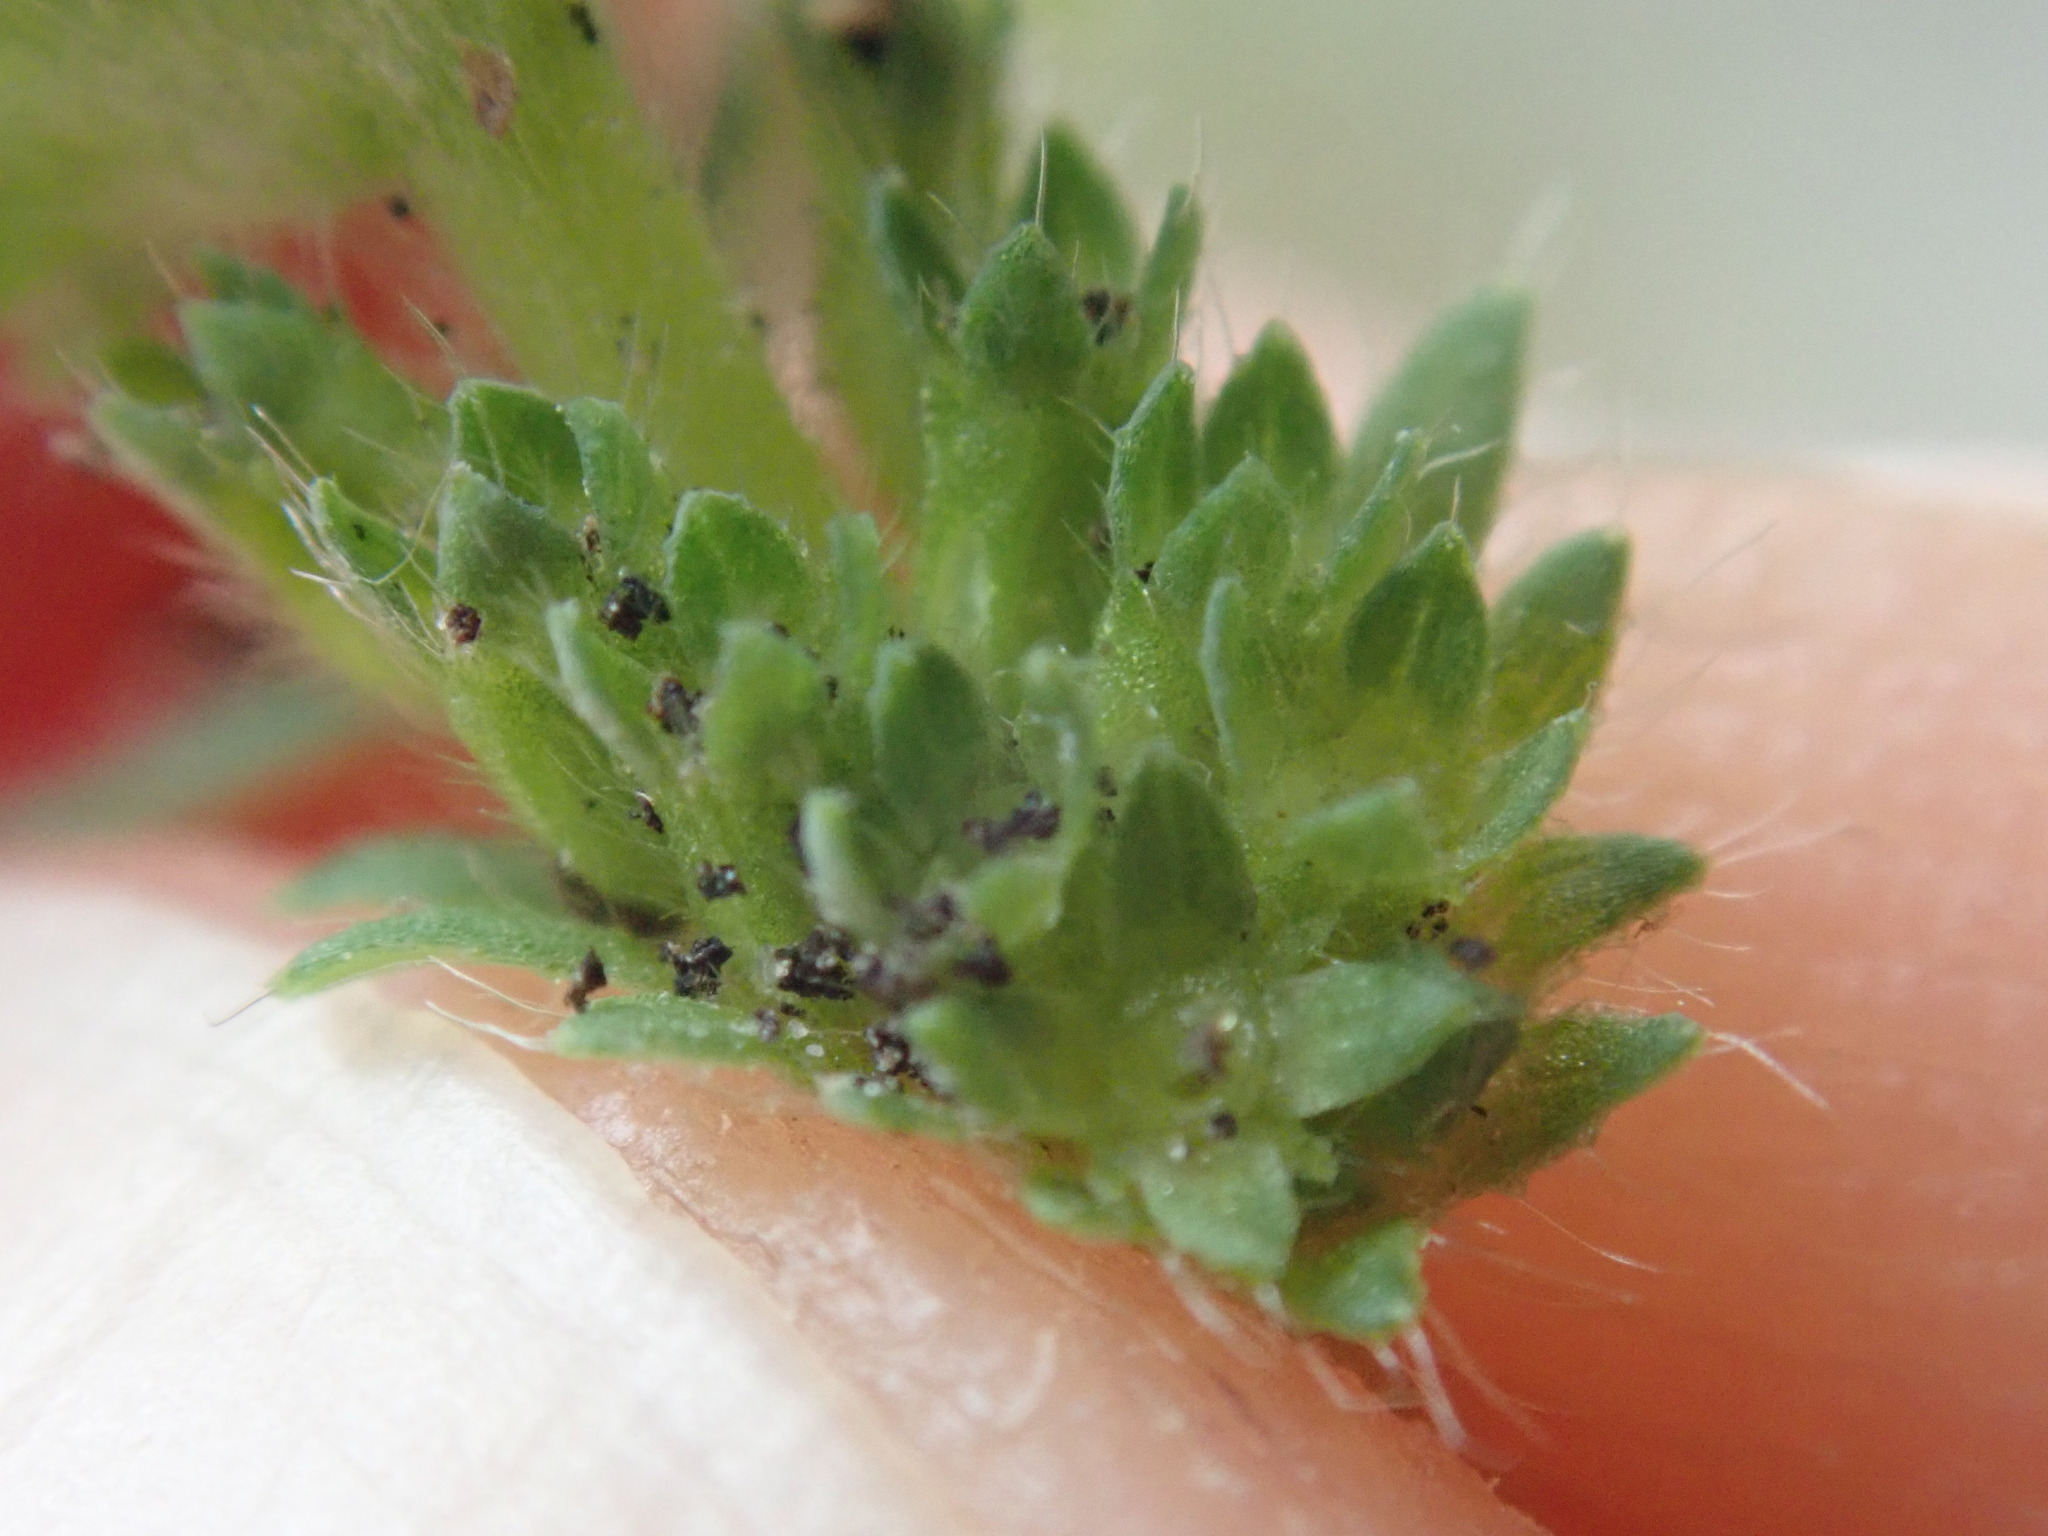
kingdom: Plantae
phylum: Tracheophyta
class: Magnoliopsida
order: Rosales
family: Rosaceae
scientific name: Rosaceae
